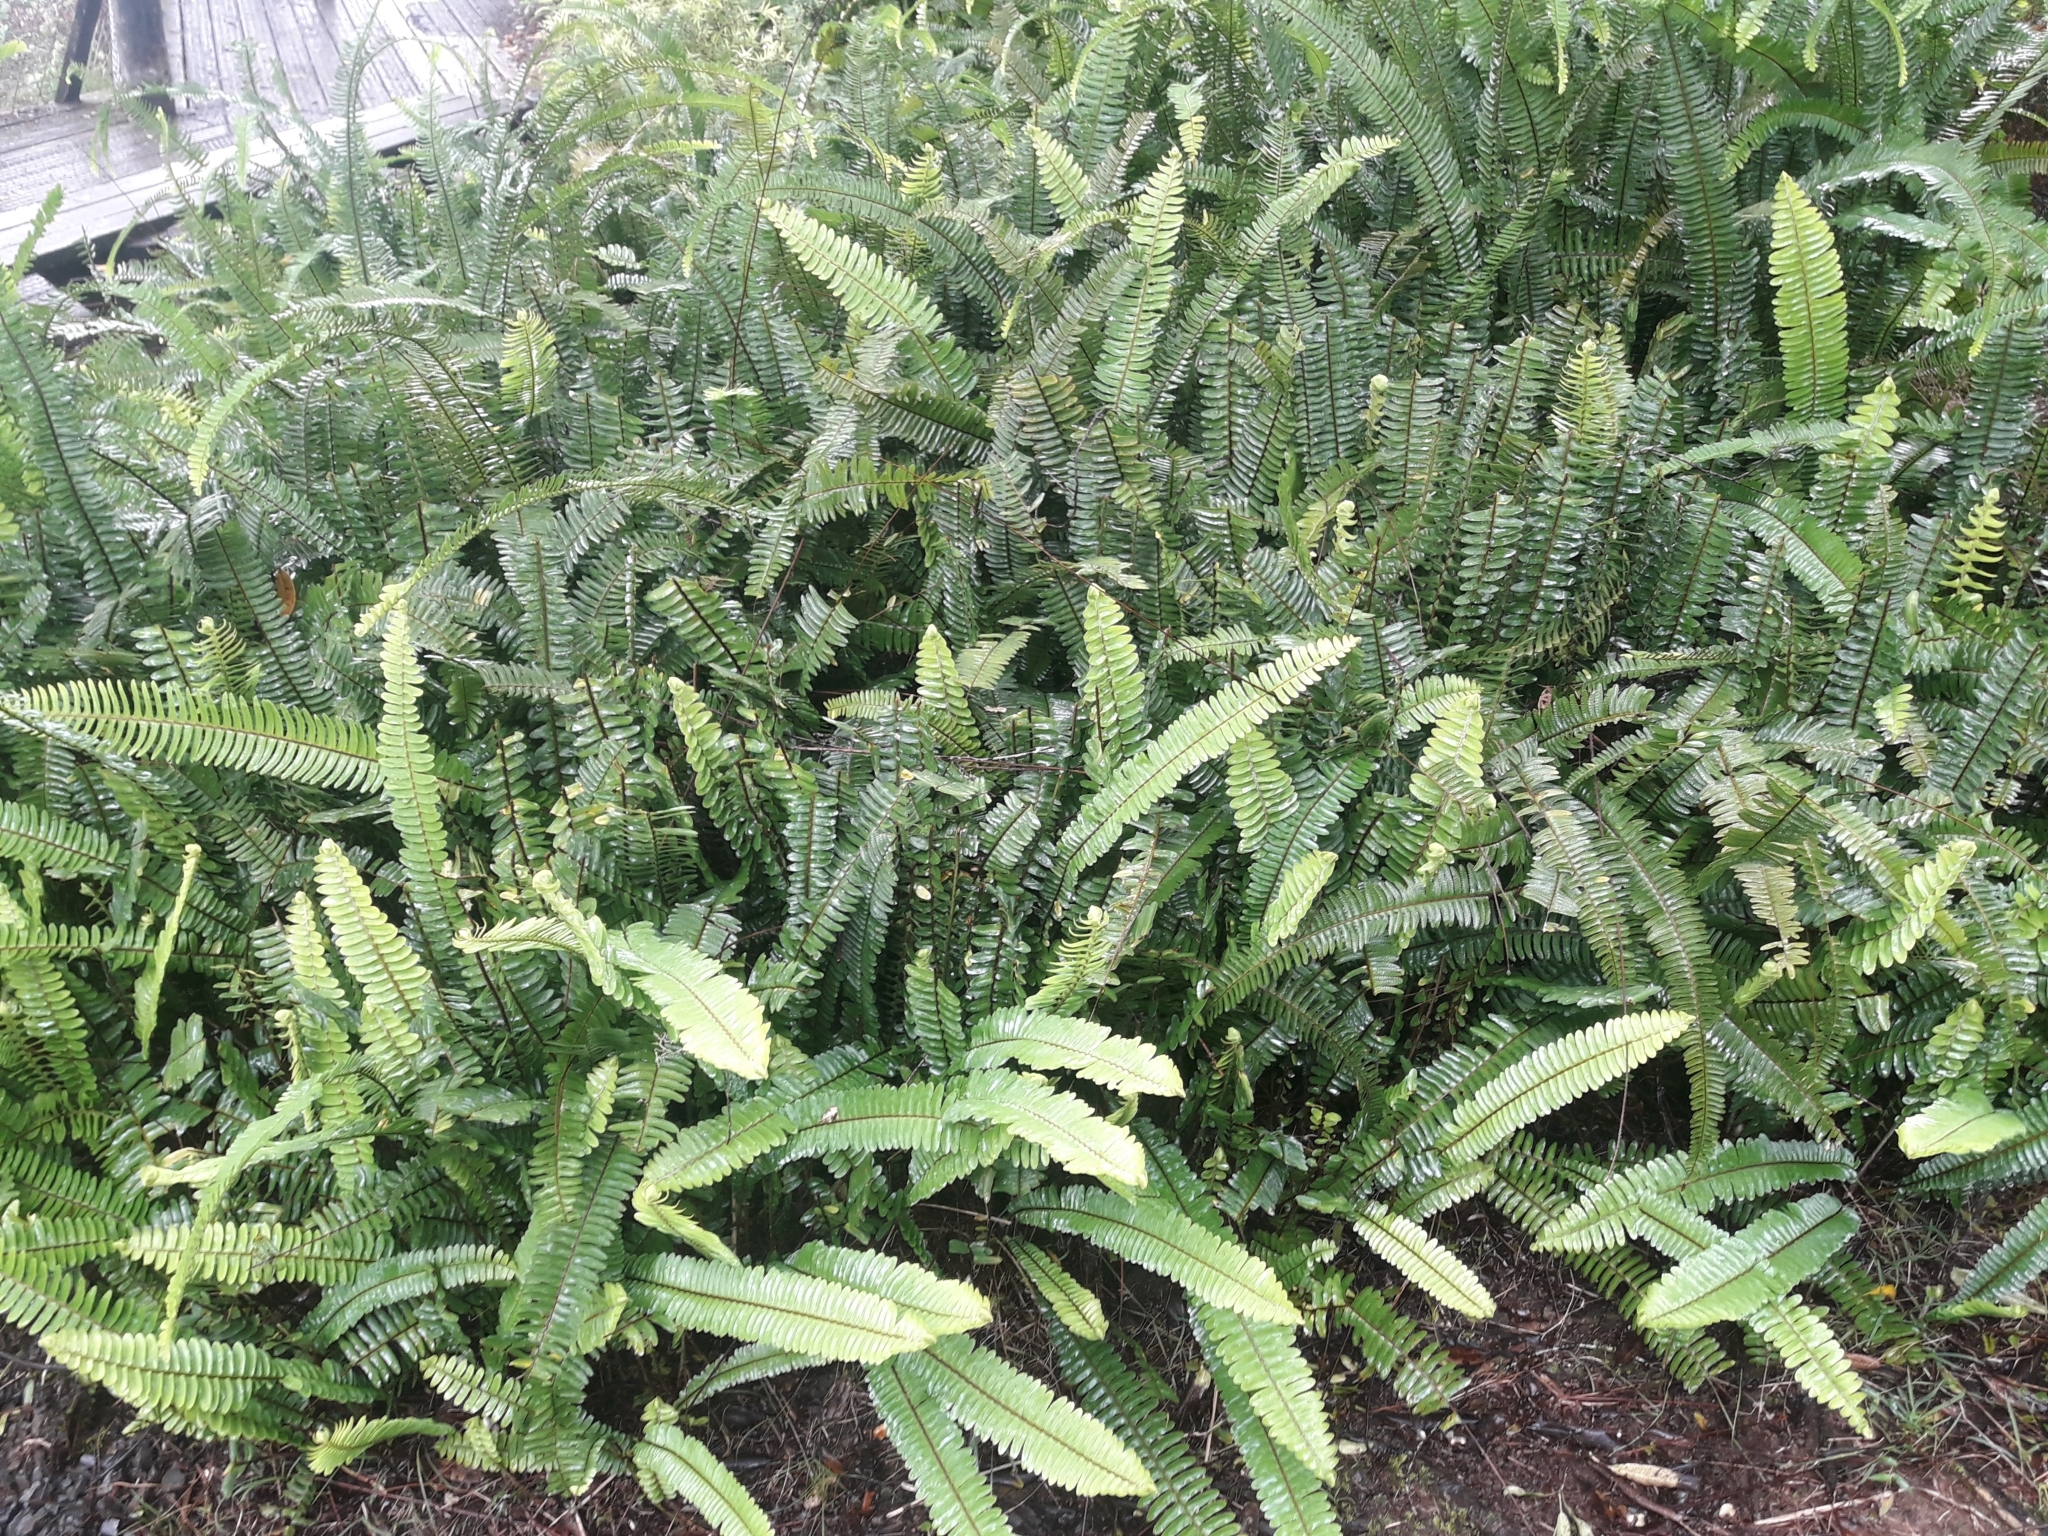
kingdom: Plantae
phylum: Tracheophyta
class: Polypodiopsida
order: Polypodiales
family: Nephrolepidaceae
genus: Nephrolepis
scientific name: Nephrolepis cordifolia
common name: Narrow swordfern
